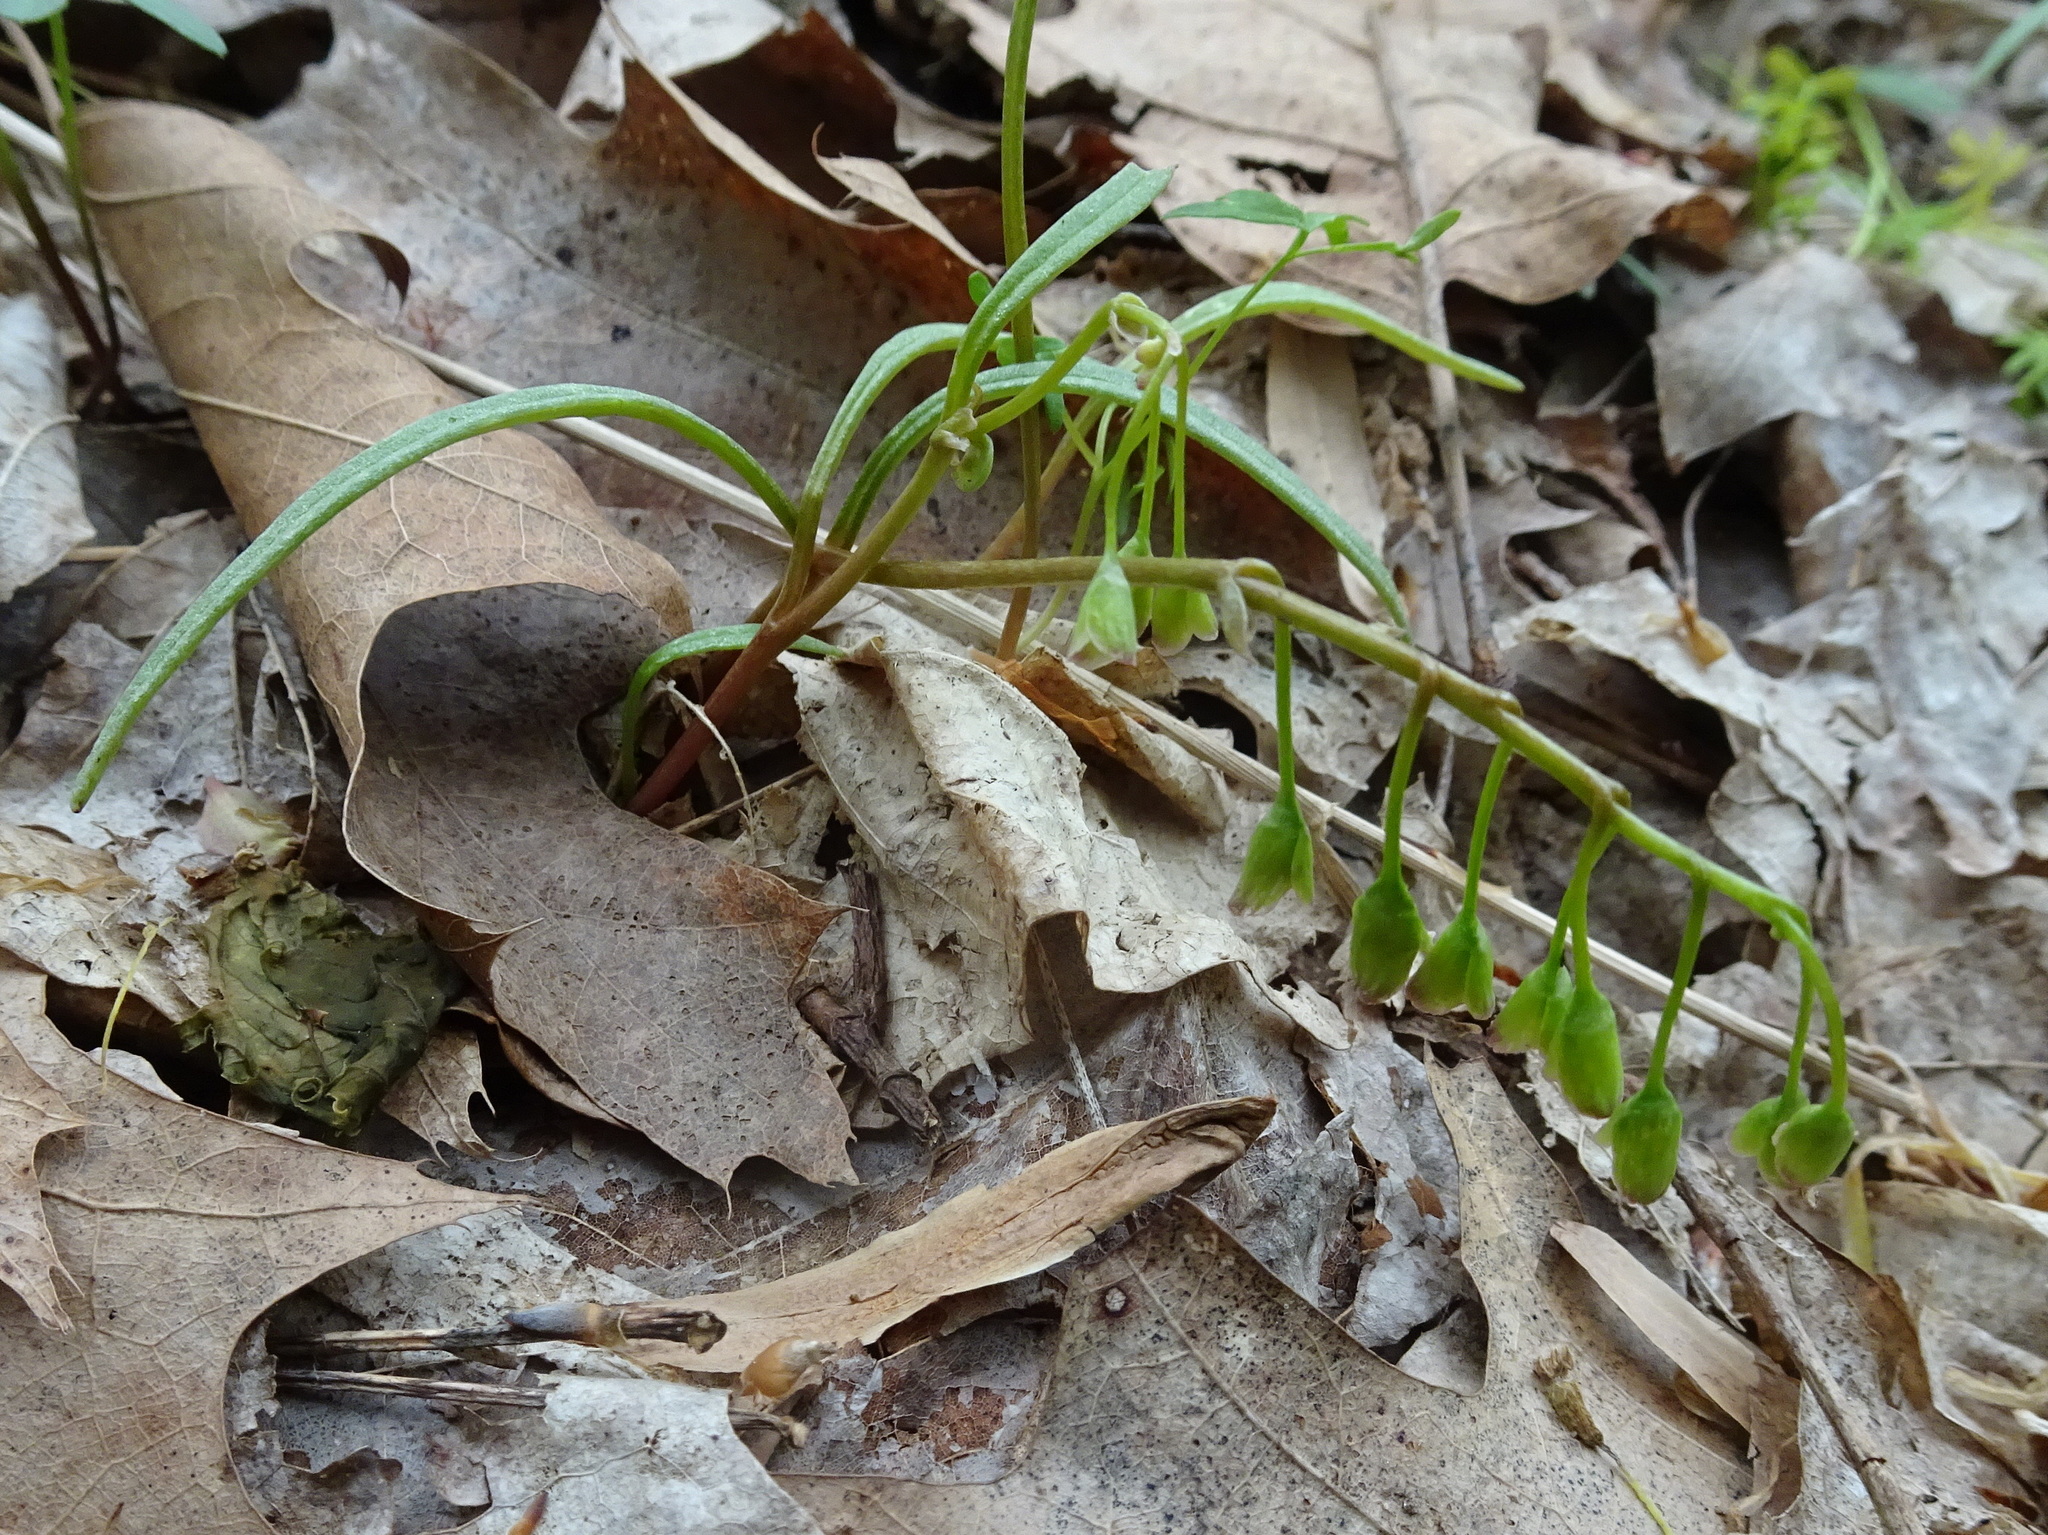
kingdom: Plantae
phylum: Tracheophyta
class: Magnoliopsida
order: Caryophyllales
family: Montiaceae
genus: Claytonia
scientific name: Claytonia virginica
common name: Virginia springbeauty
